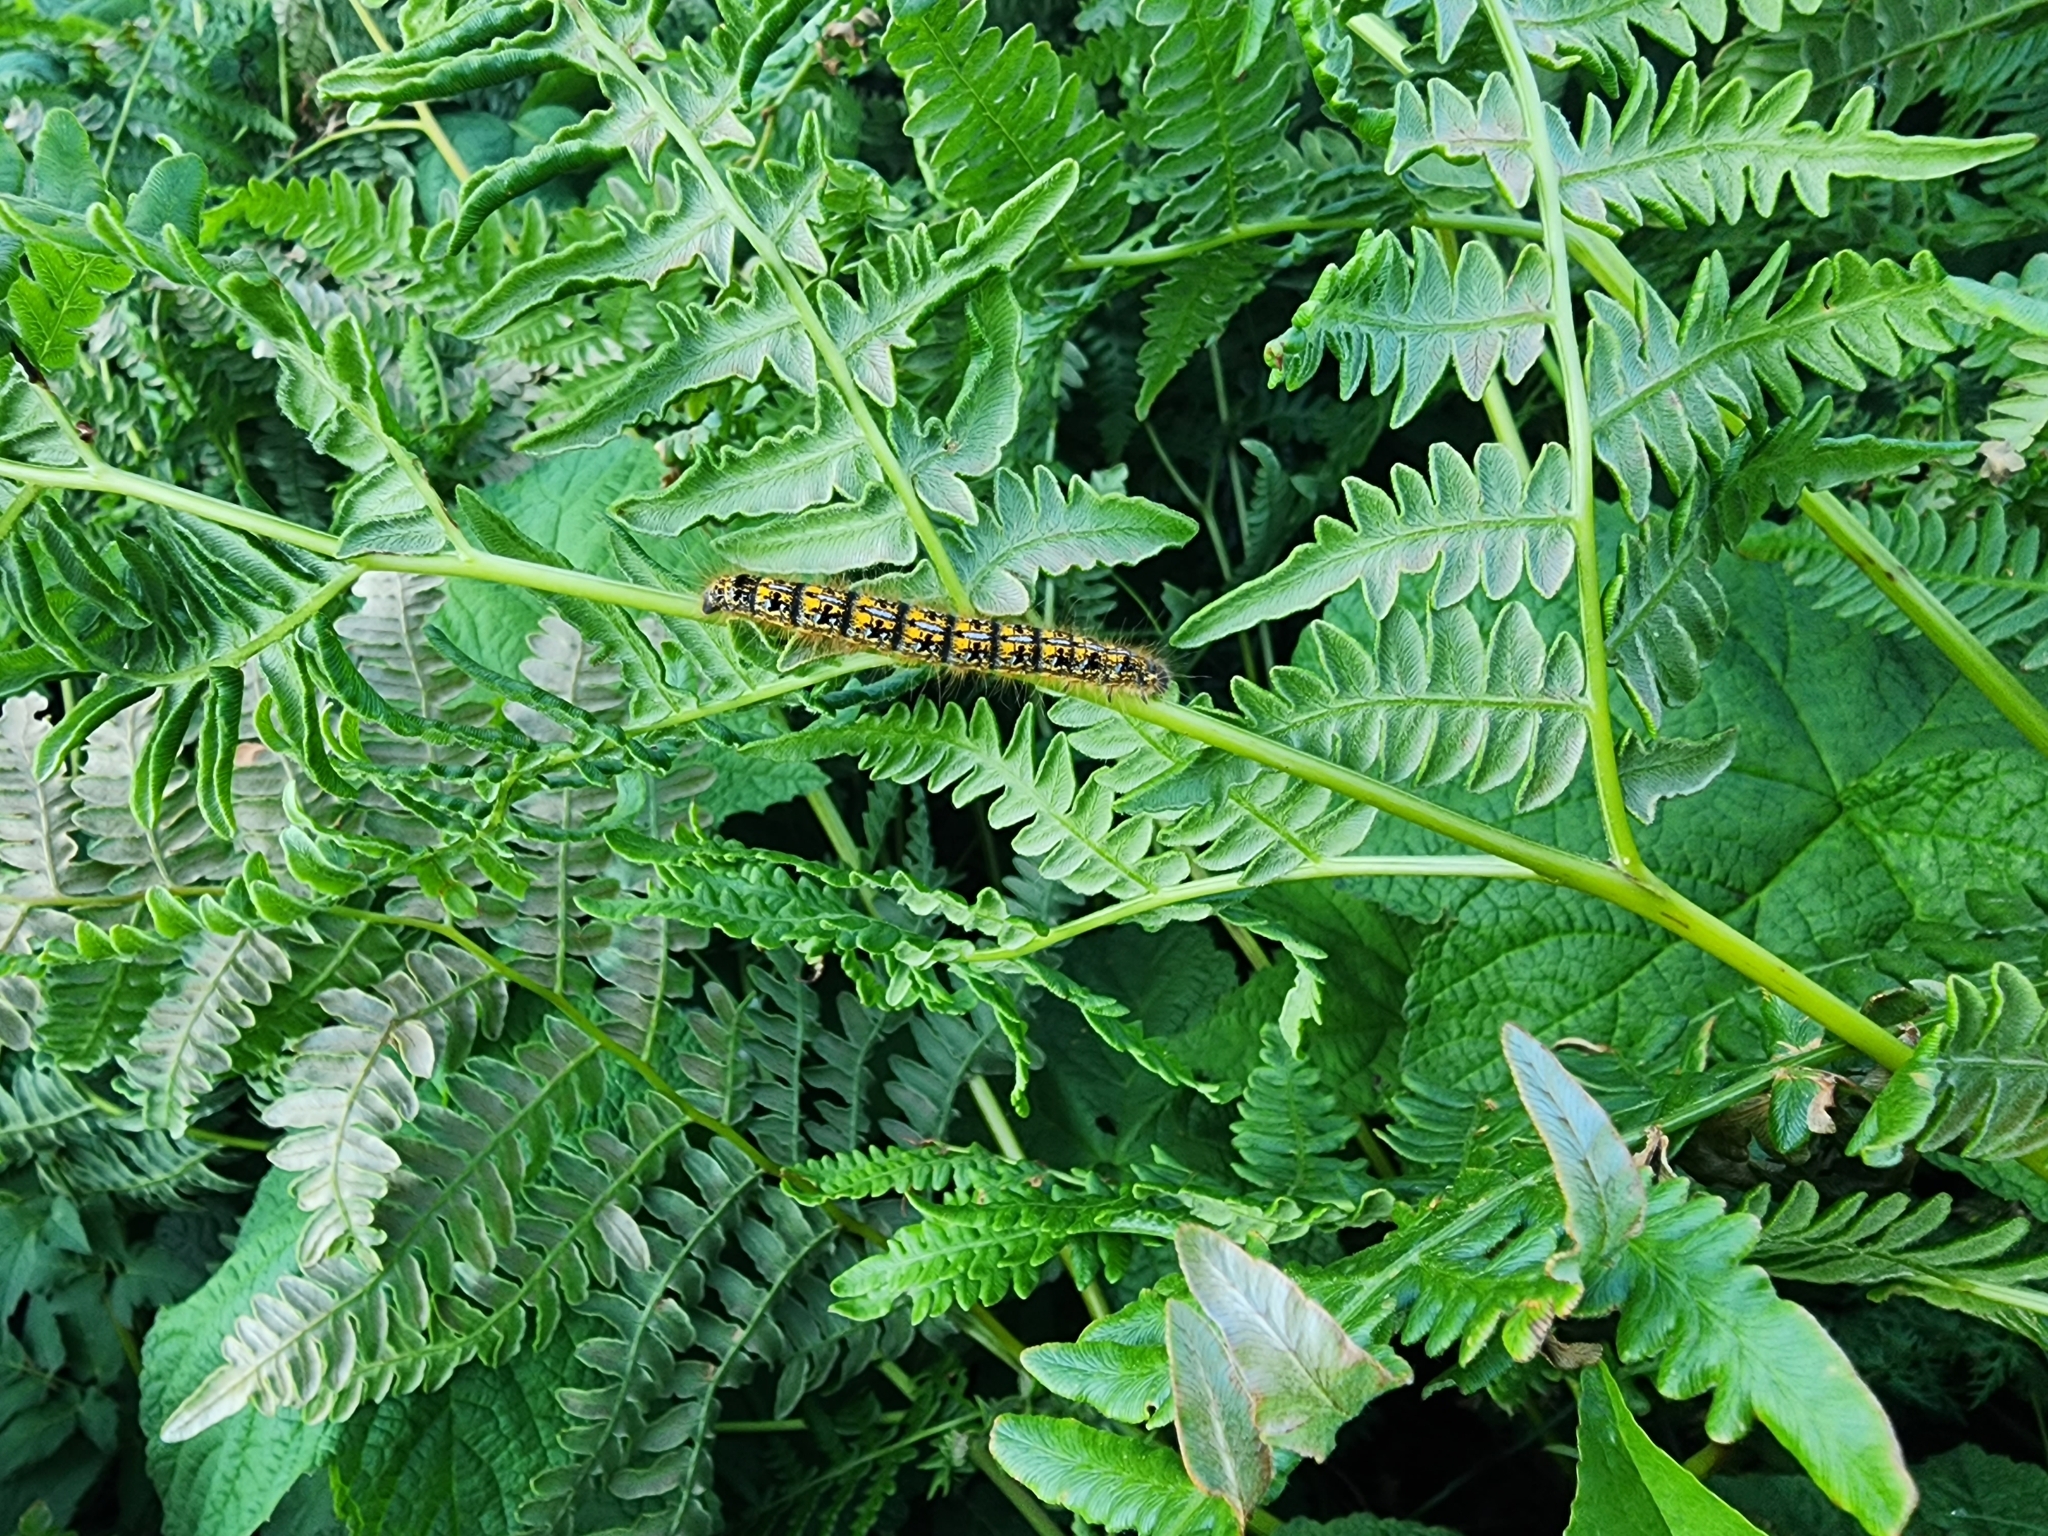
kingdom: Animalia
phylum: Arthropoda
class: Insecta
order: Lepidoptera
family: Lasiocampidae
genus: Malacosoma
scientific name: Malacosoma californica
